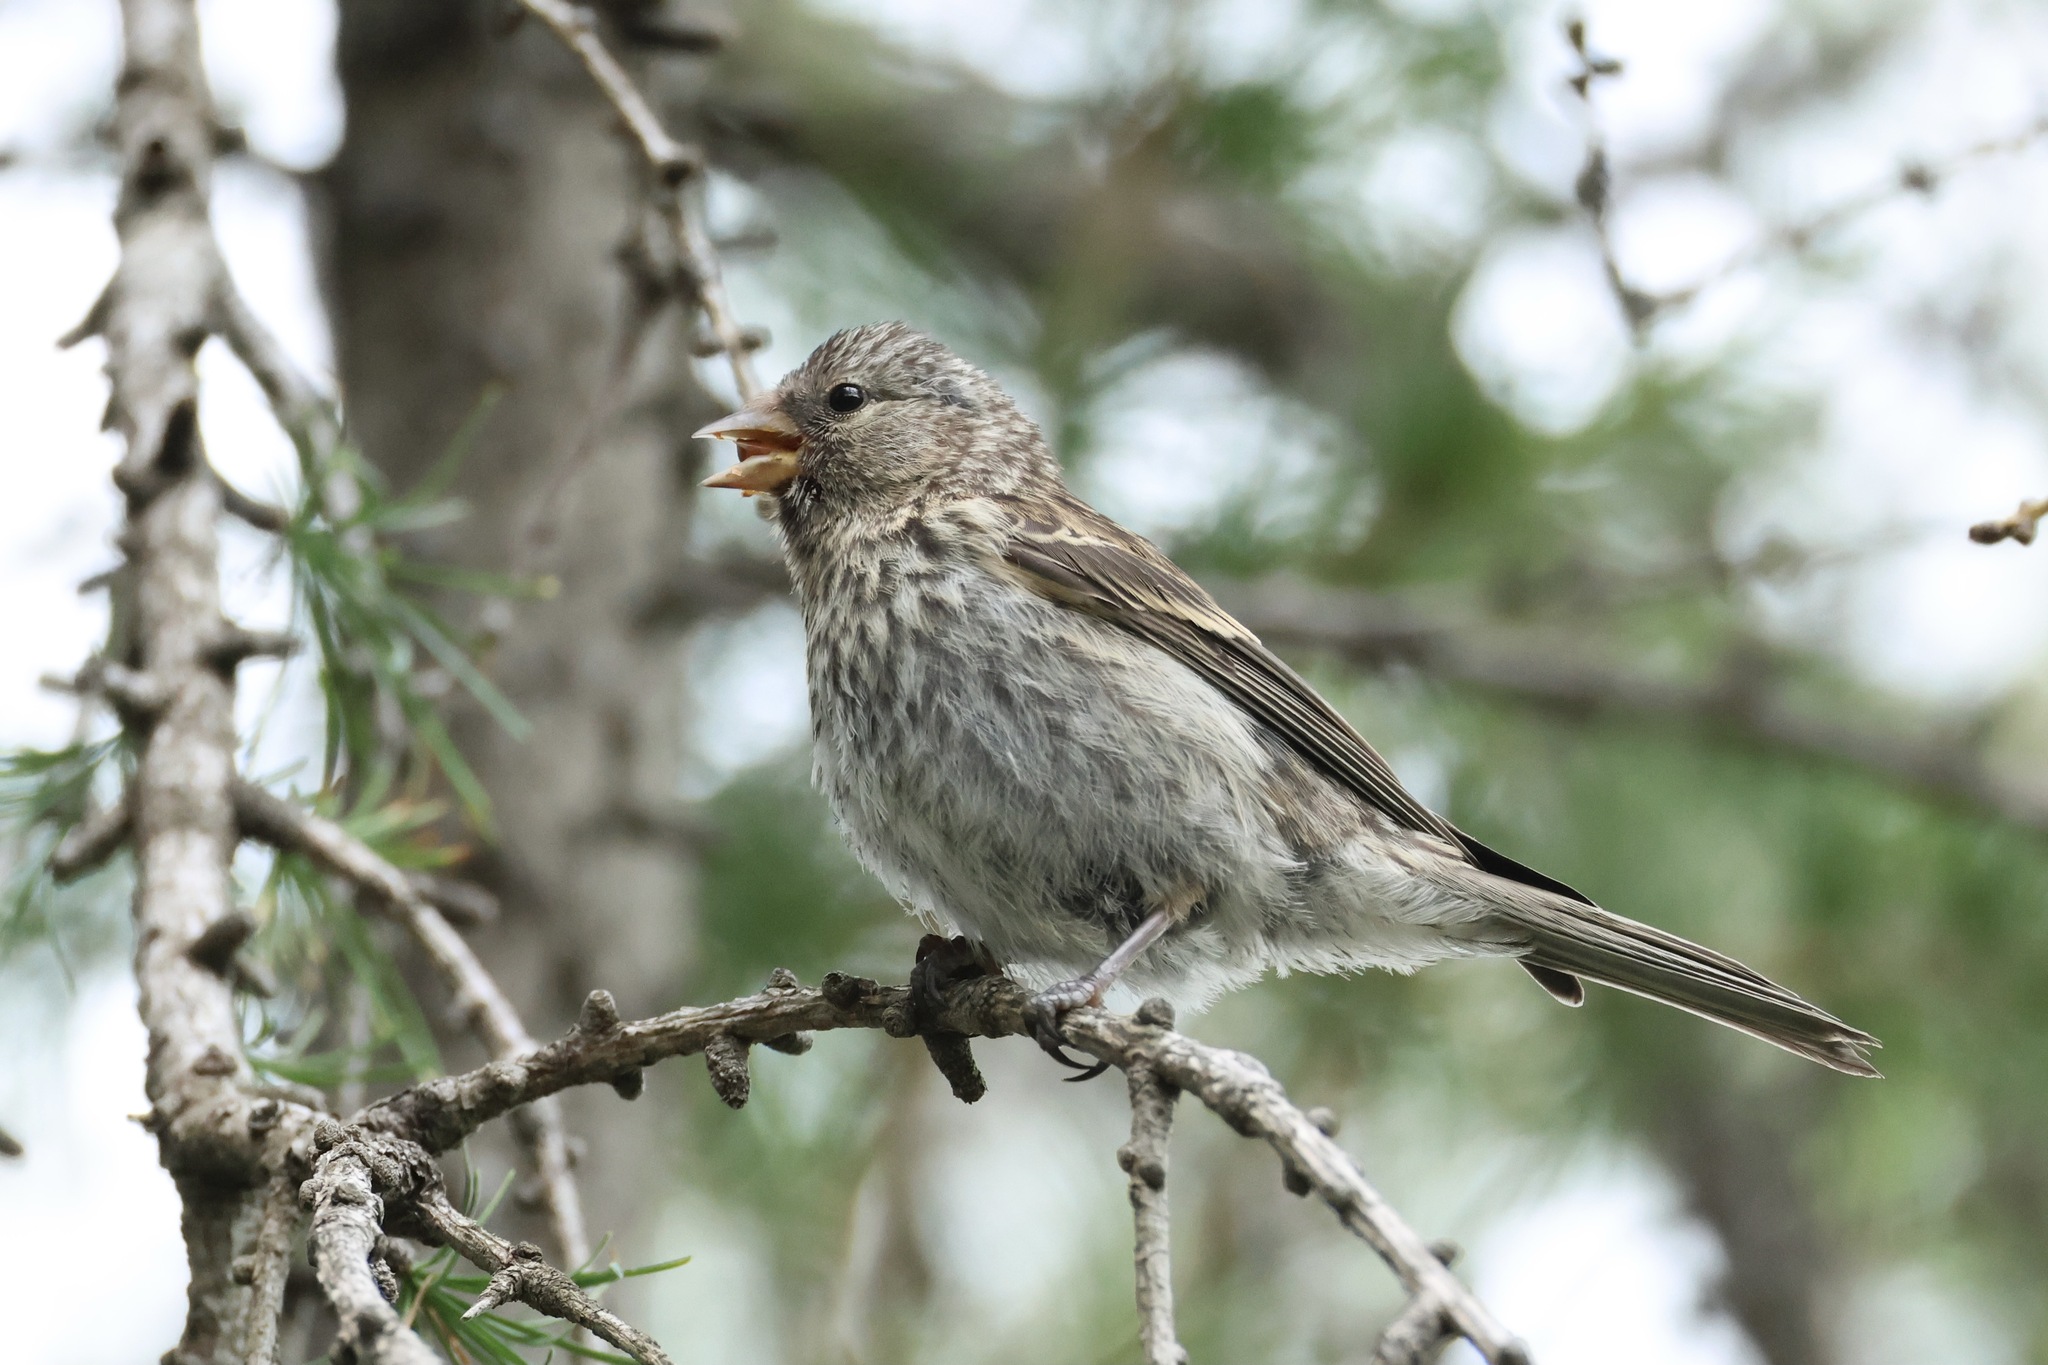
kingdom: Animalia
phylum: Chordata
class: Aves
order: Passeriformes
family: Fringillidae
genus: Acanthis
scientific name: Acanthis flammea
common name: Common redpoll
